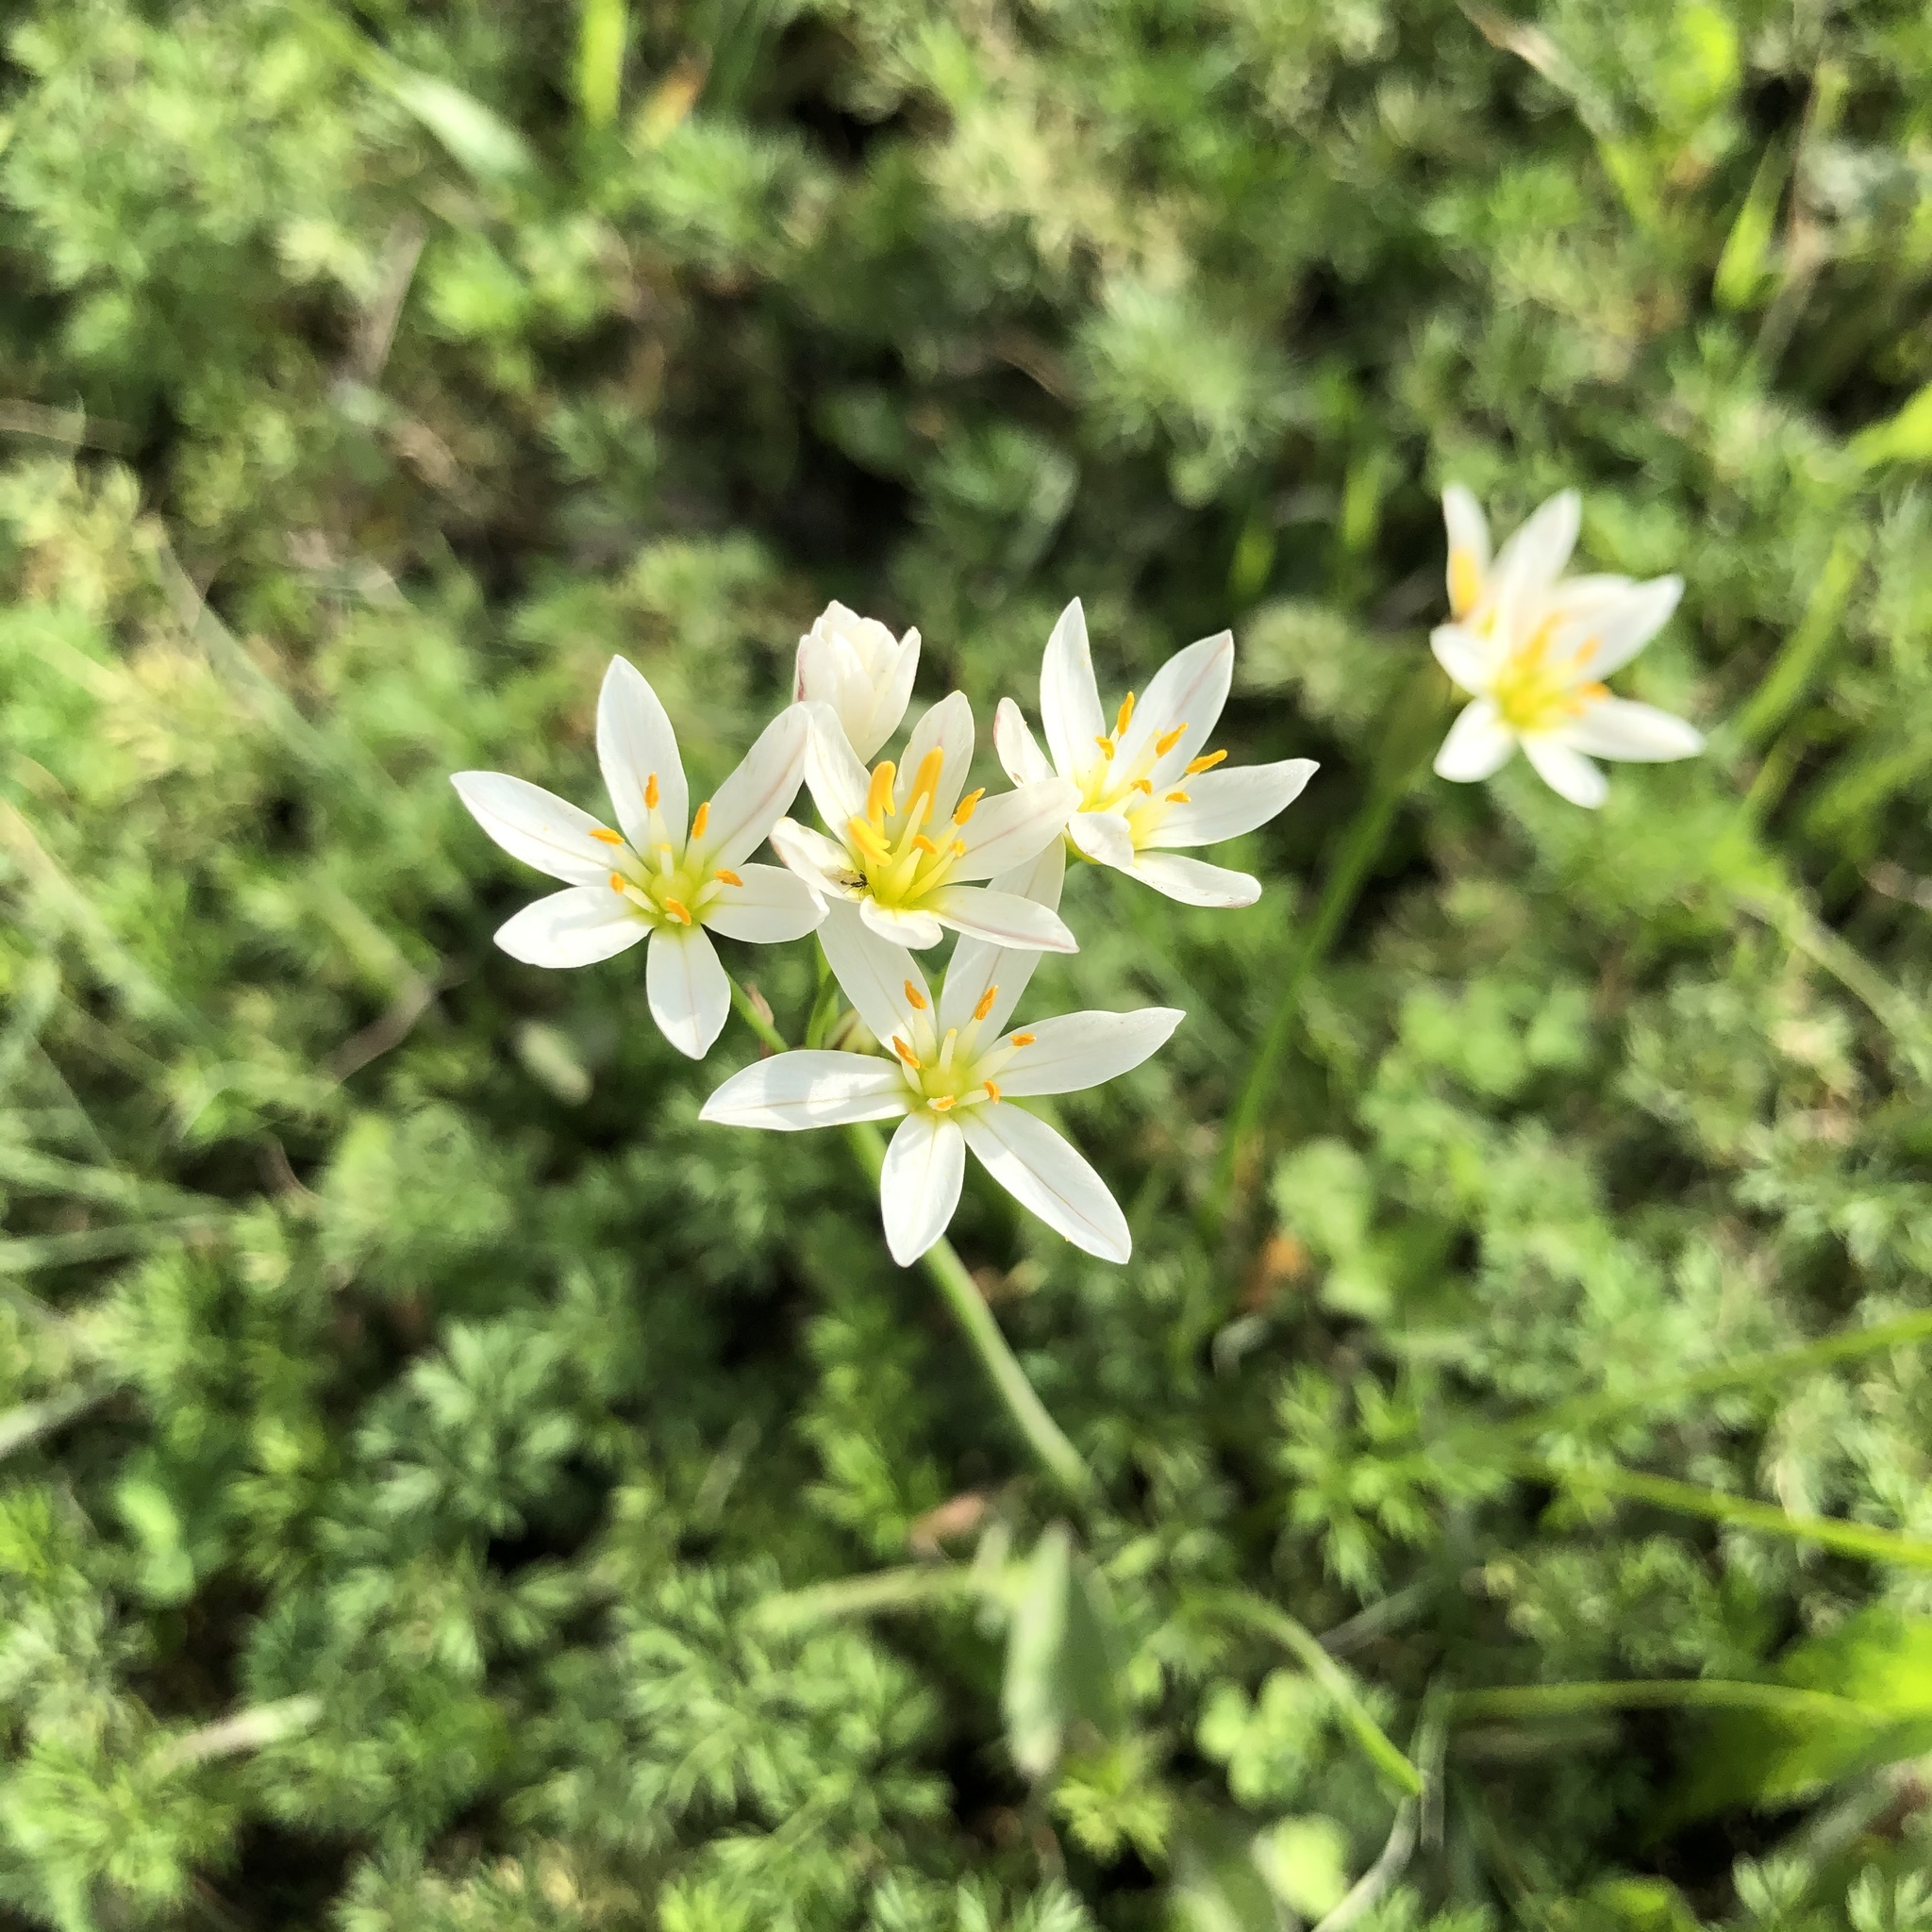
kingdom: Plantae
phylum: Tracheophyta
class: Liliopsida
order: Asparagales
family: Amaryllidaceae
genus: Nothoscordum
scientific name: Nothoscordum bivalve
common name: Crow-poison
